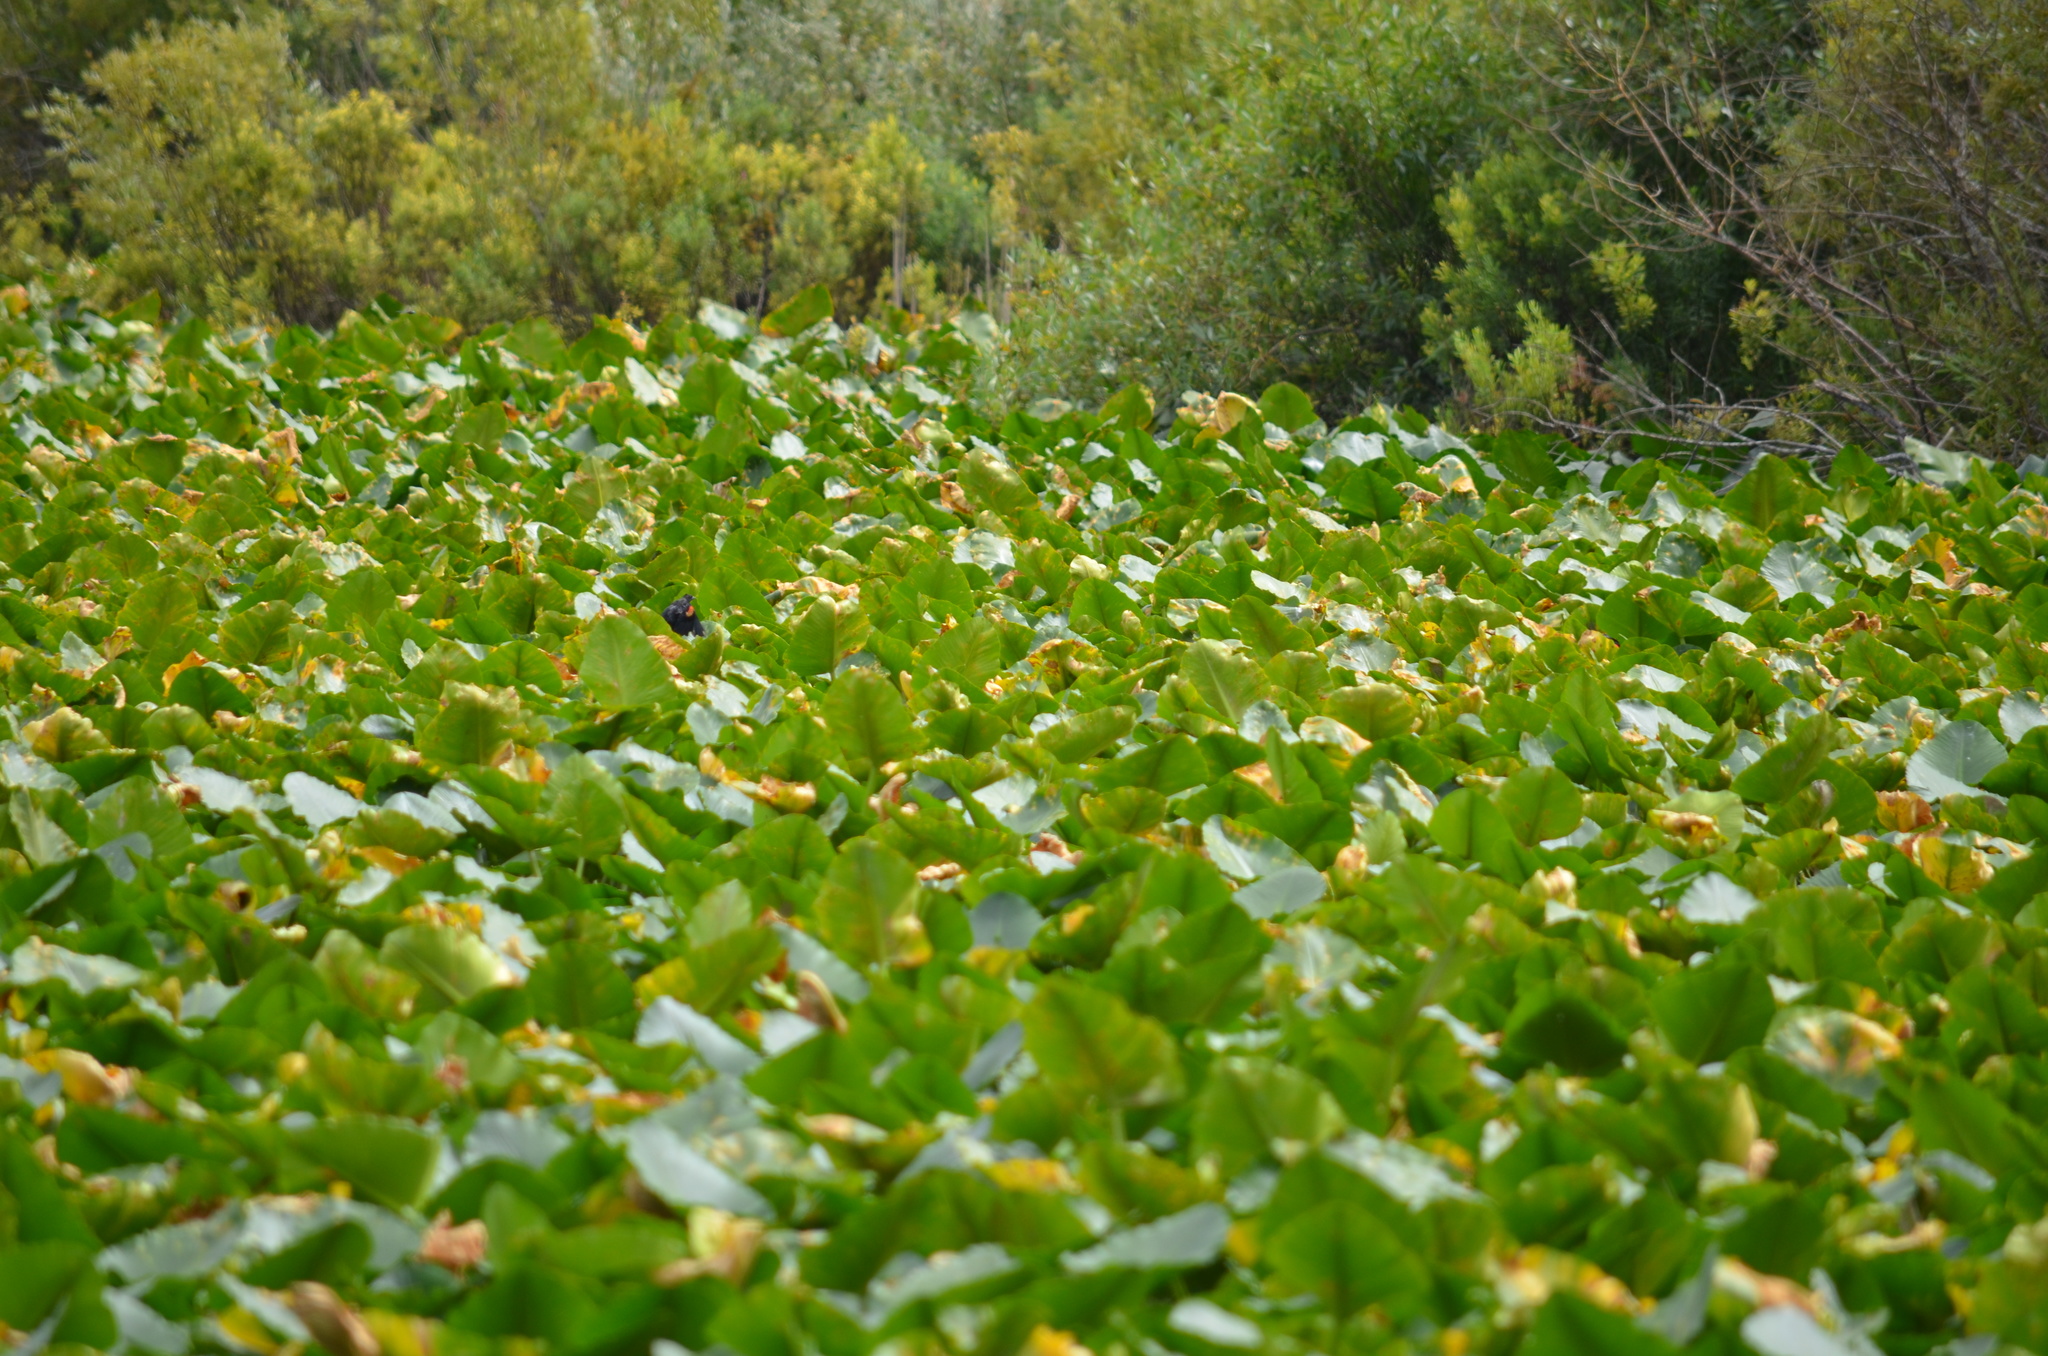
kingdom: Plantae
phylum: Tracheophyta
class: Magnoliopsida
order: Nymphaeales
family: Nymphaeaceae
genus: Nuphar
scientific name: Nuphar polysepala
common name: Rocky mountain cow-lily
